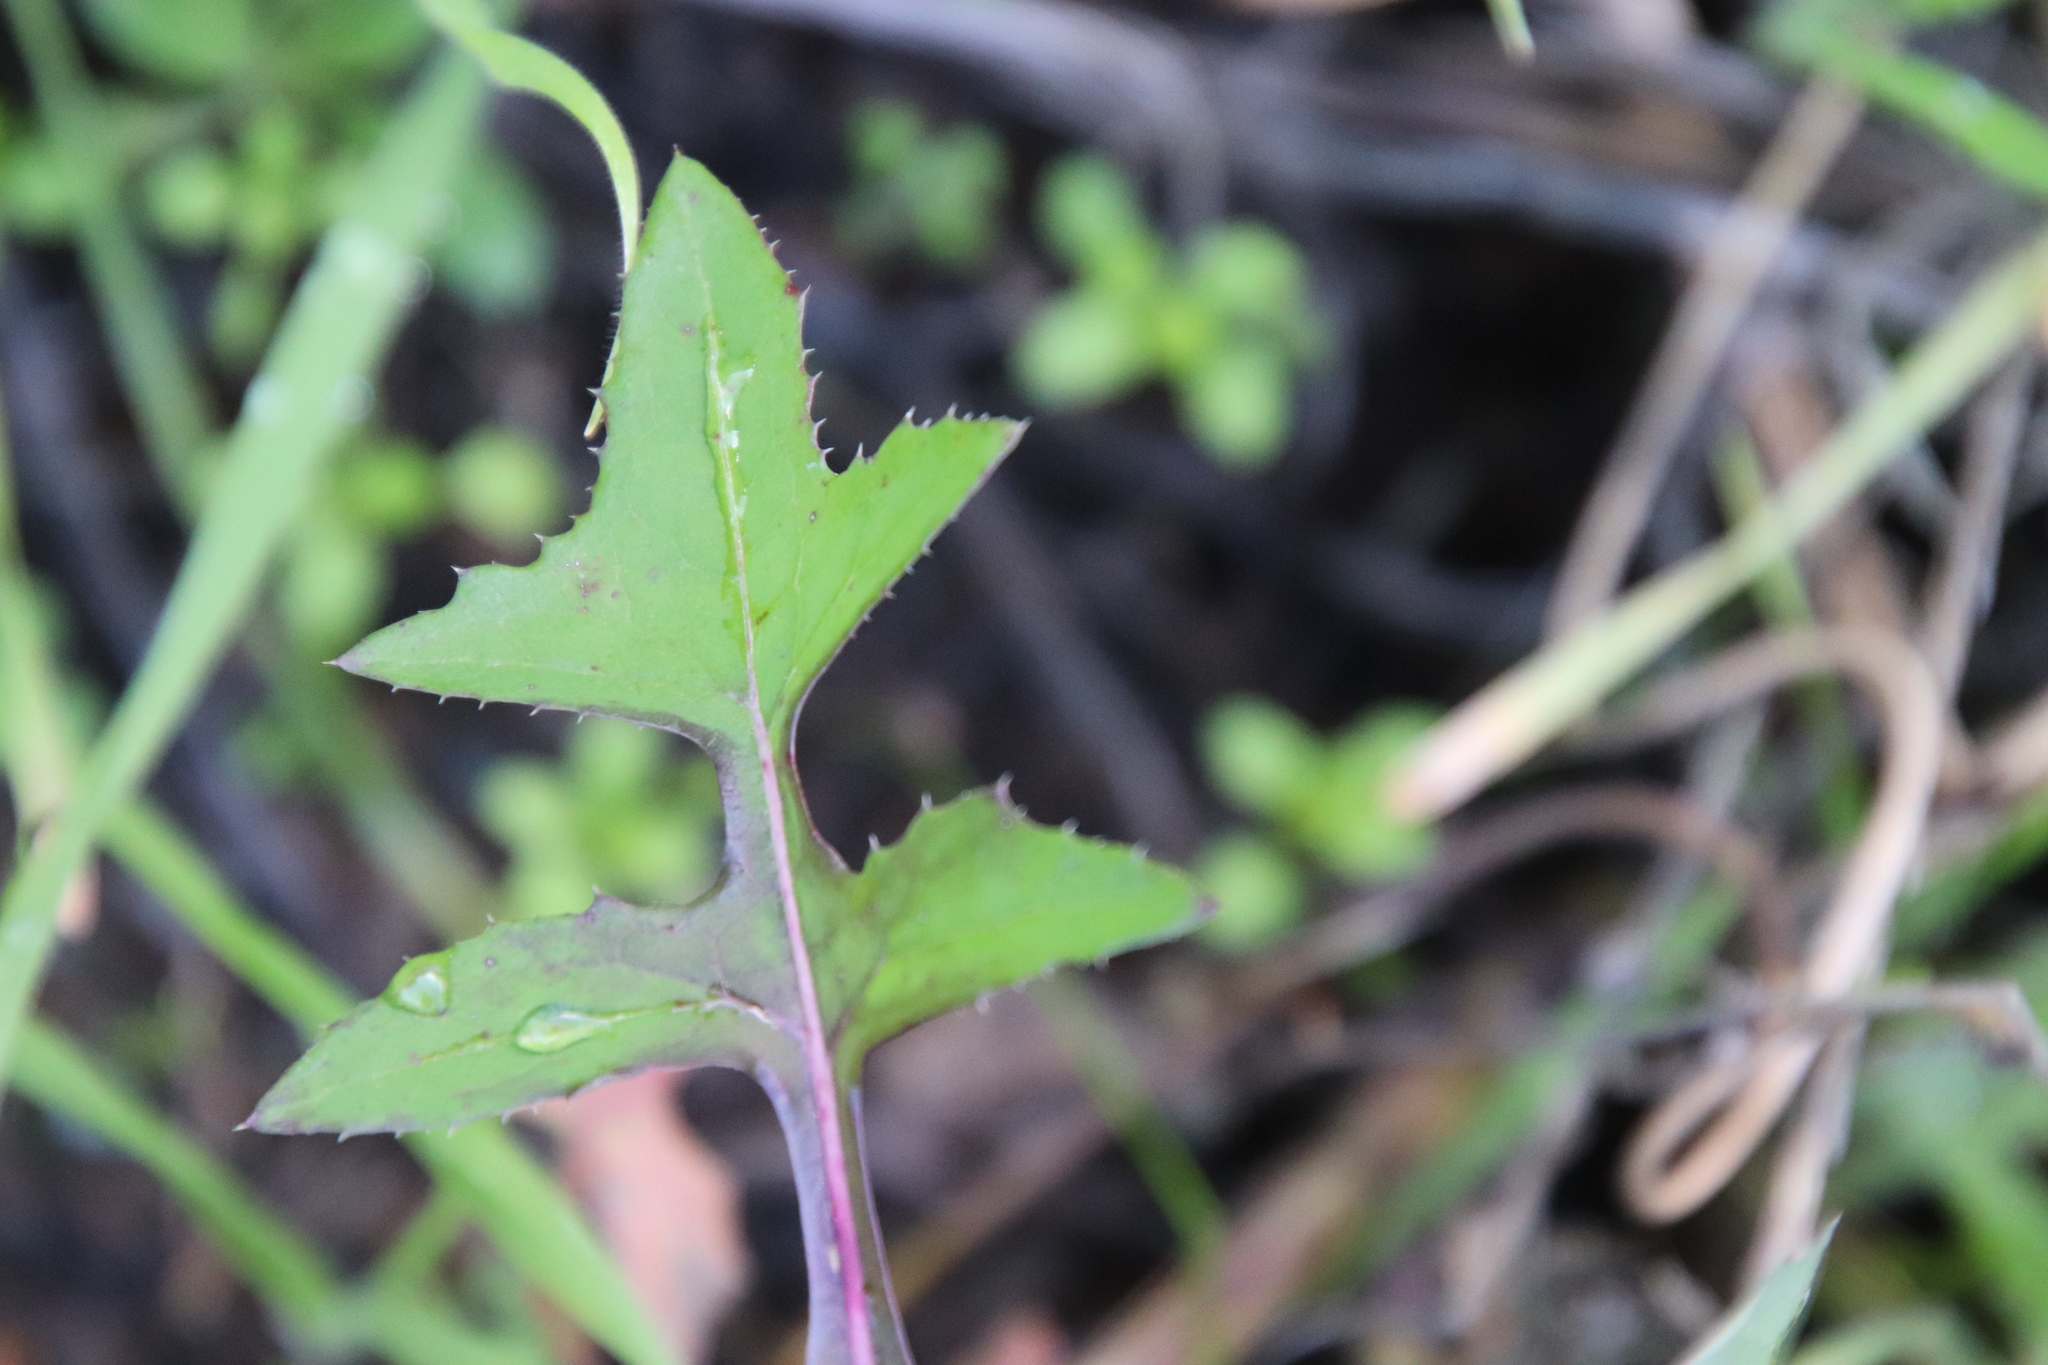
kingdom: Plantae
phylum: Tracheophyta
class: Magnoliopsida
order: Asterales
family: Asteraceae
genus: Sonchus
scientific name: Sonchus oleraceus
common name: Common sowthistle
